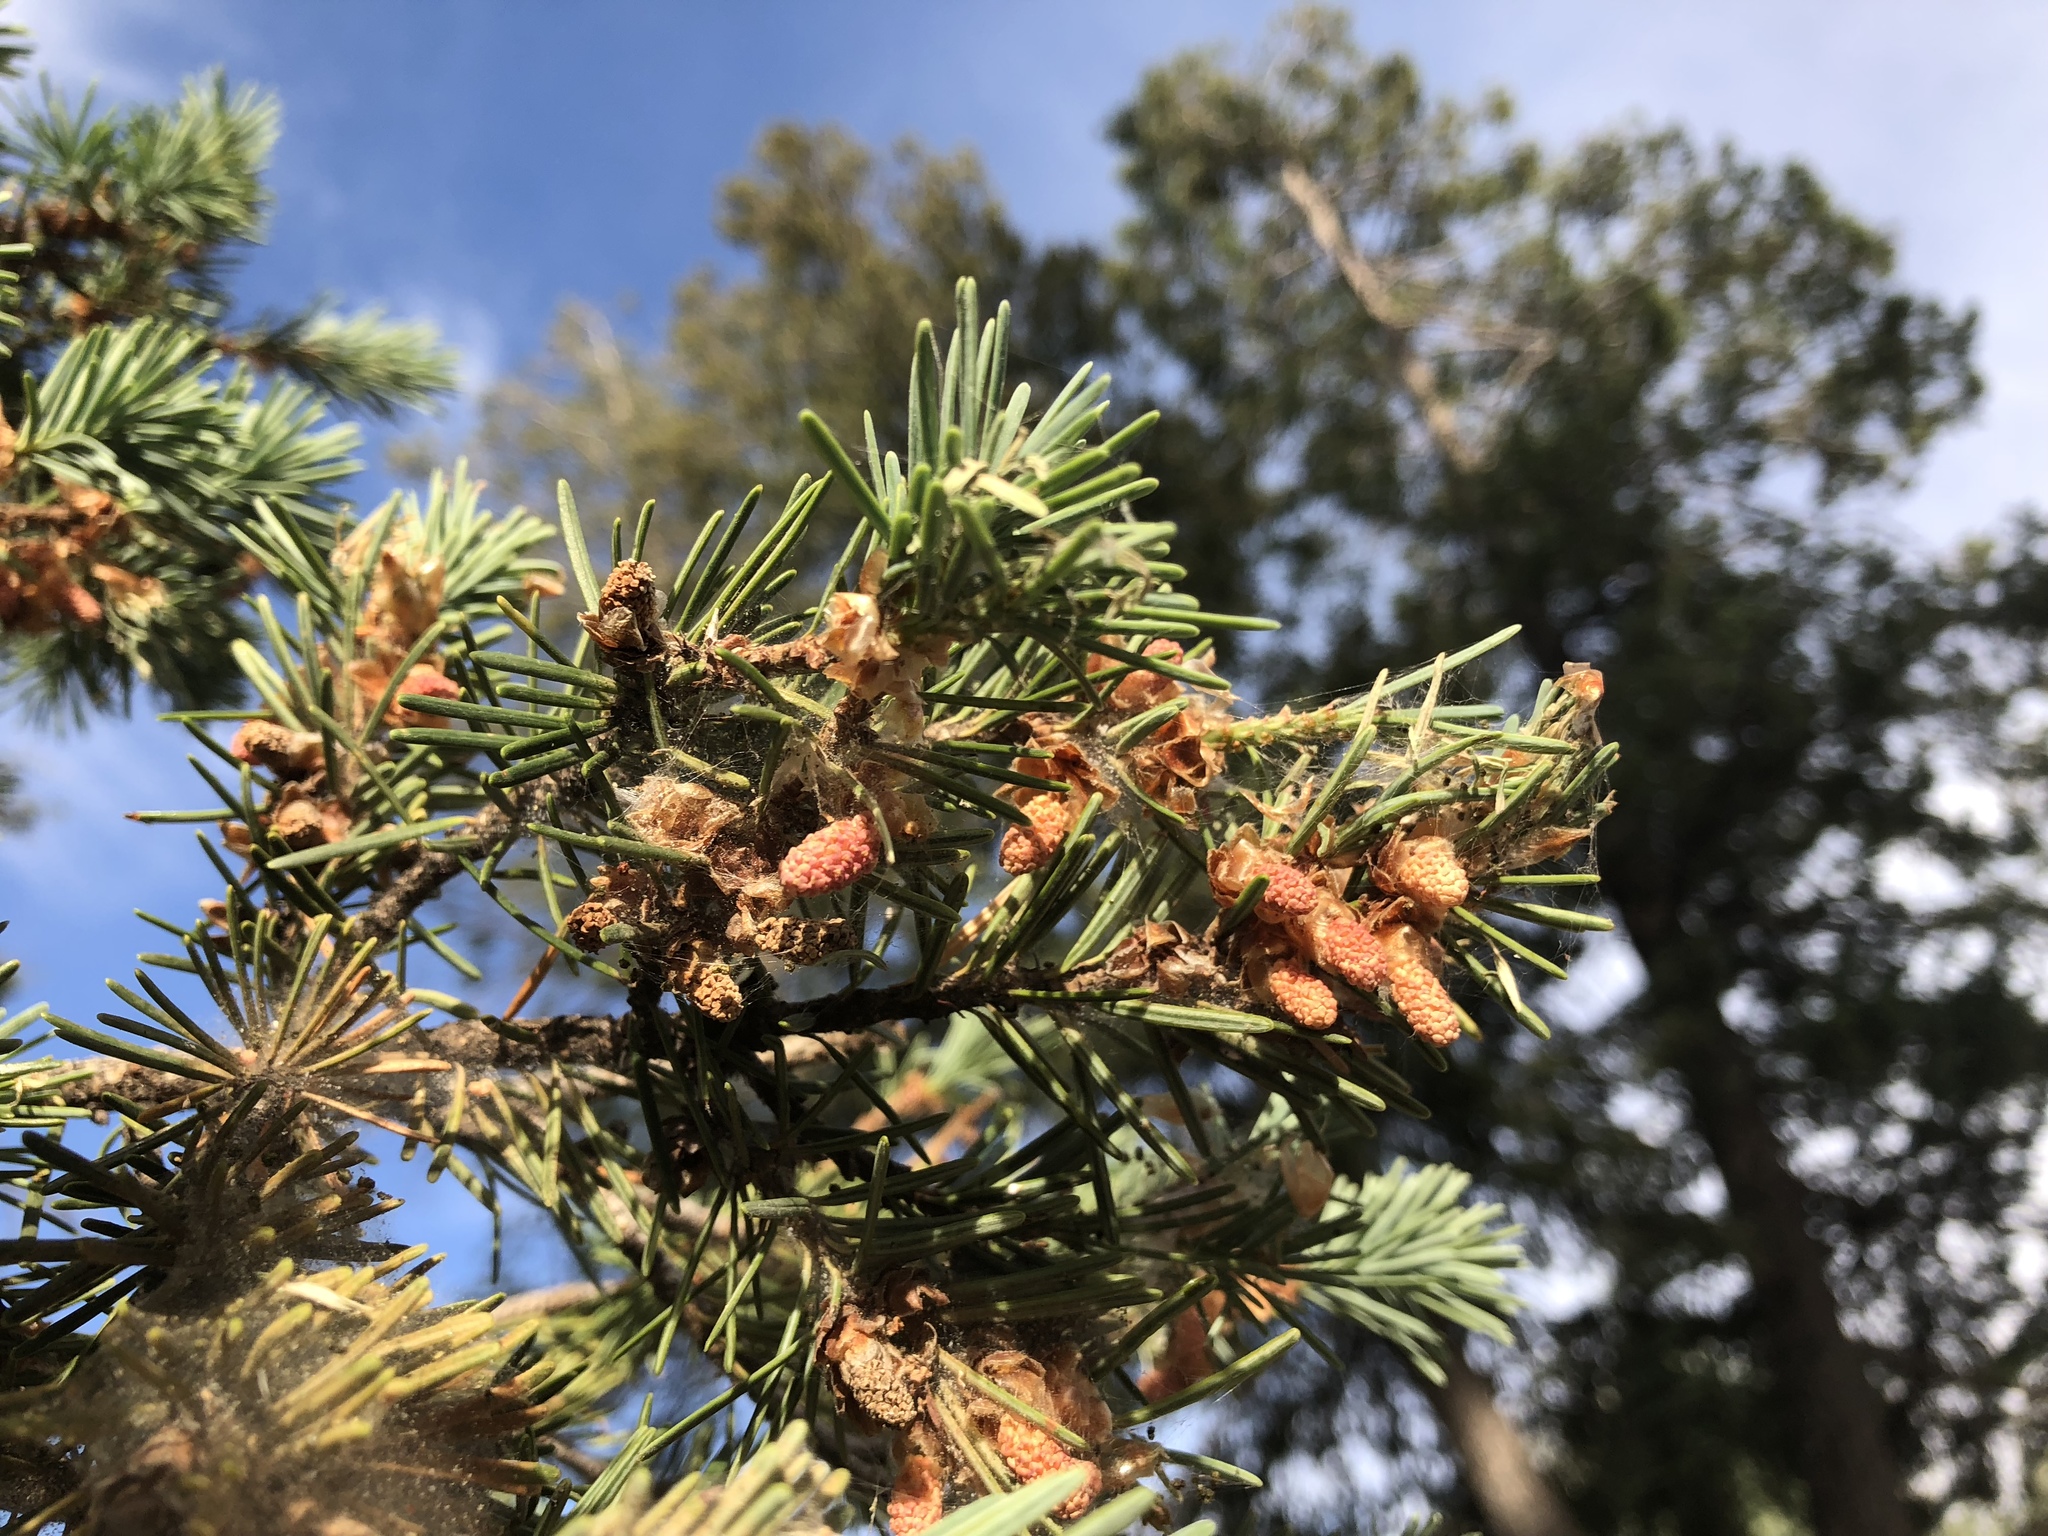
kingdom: Plantae
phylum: Tracheophyta
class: Pinopsida
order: Pinales
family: Pinaceae
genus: Pseudotsuga
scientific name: Pseudotsuga menziesii
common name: Douglas fir
